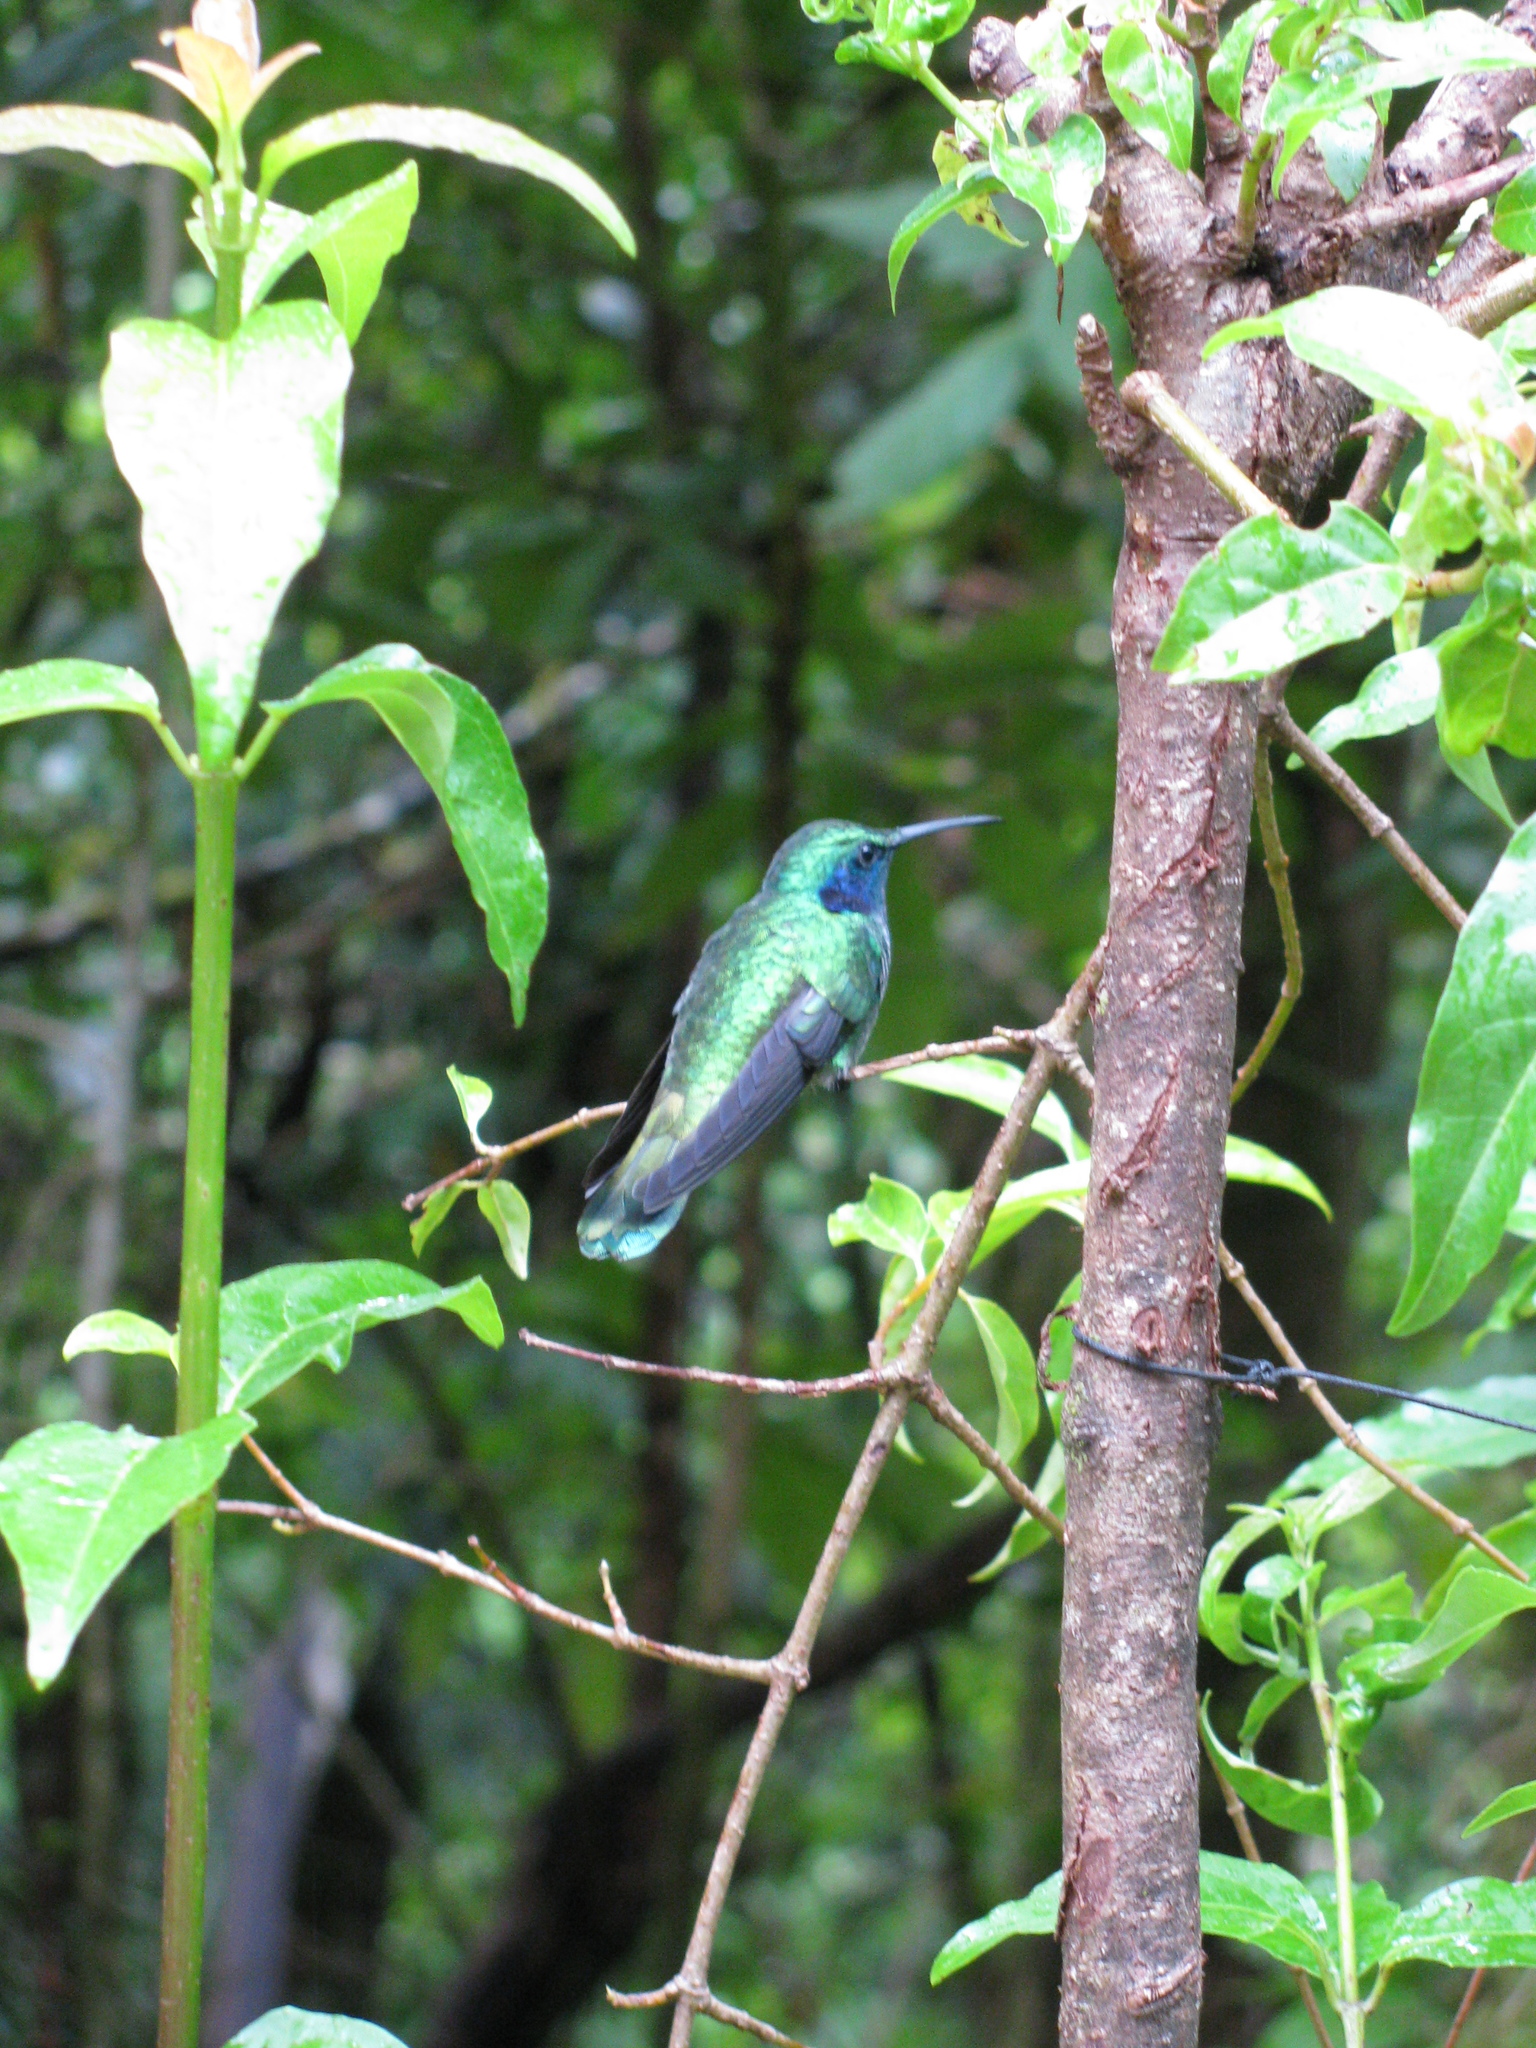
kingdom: Animalia
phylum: Chordata
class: Aves
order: Apodiformes
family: Trochilidae
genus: Colibri
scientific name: Colibri cyanotus
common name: Lesser violetear
